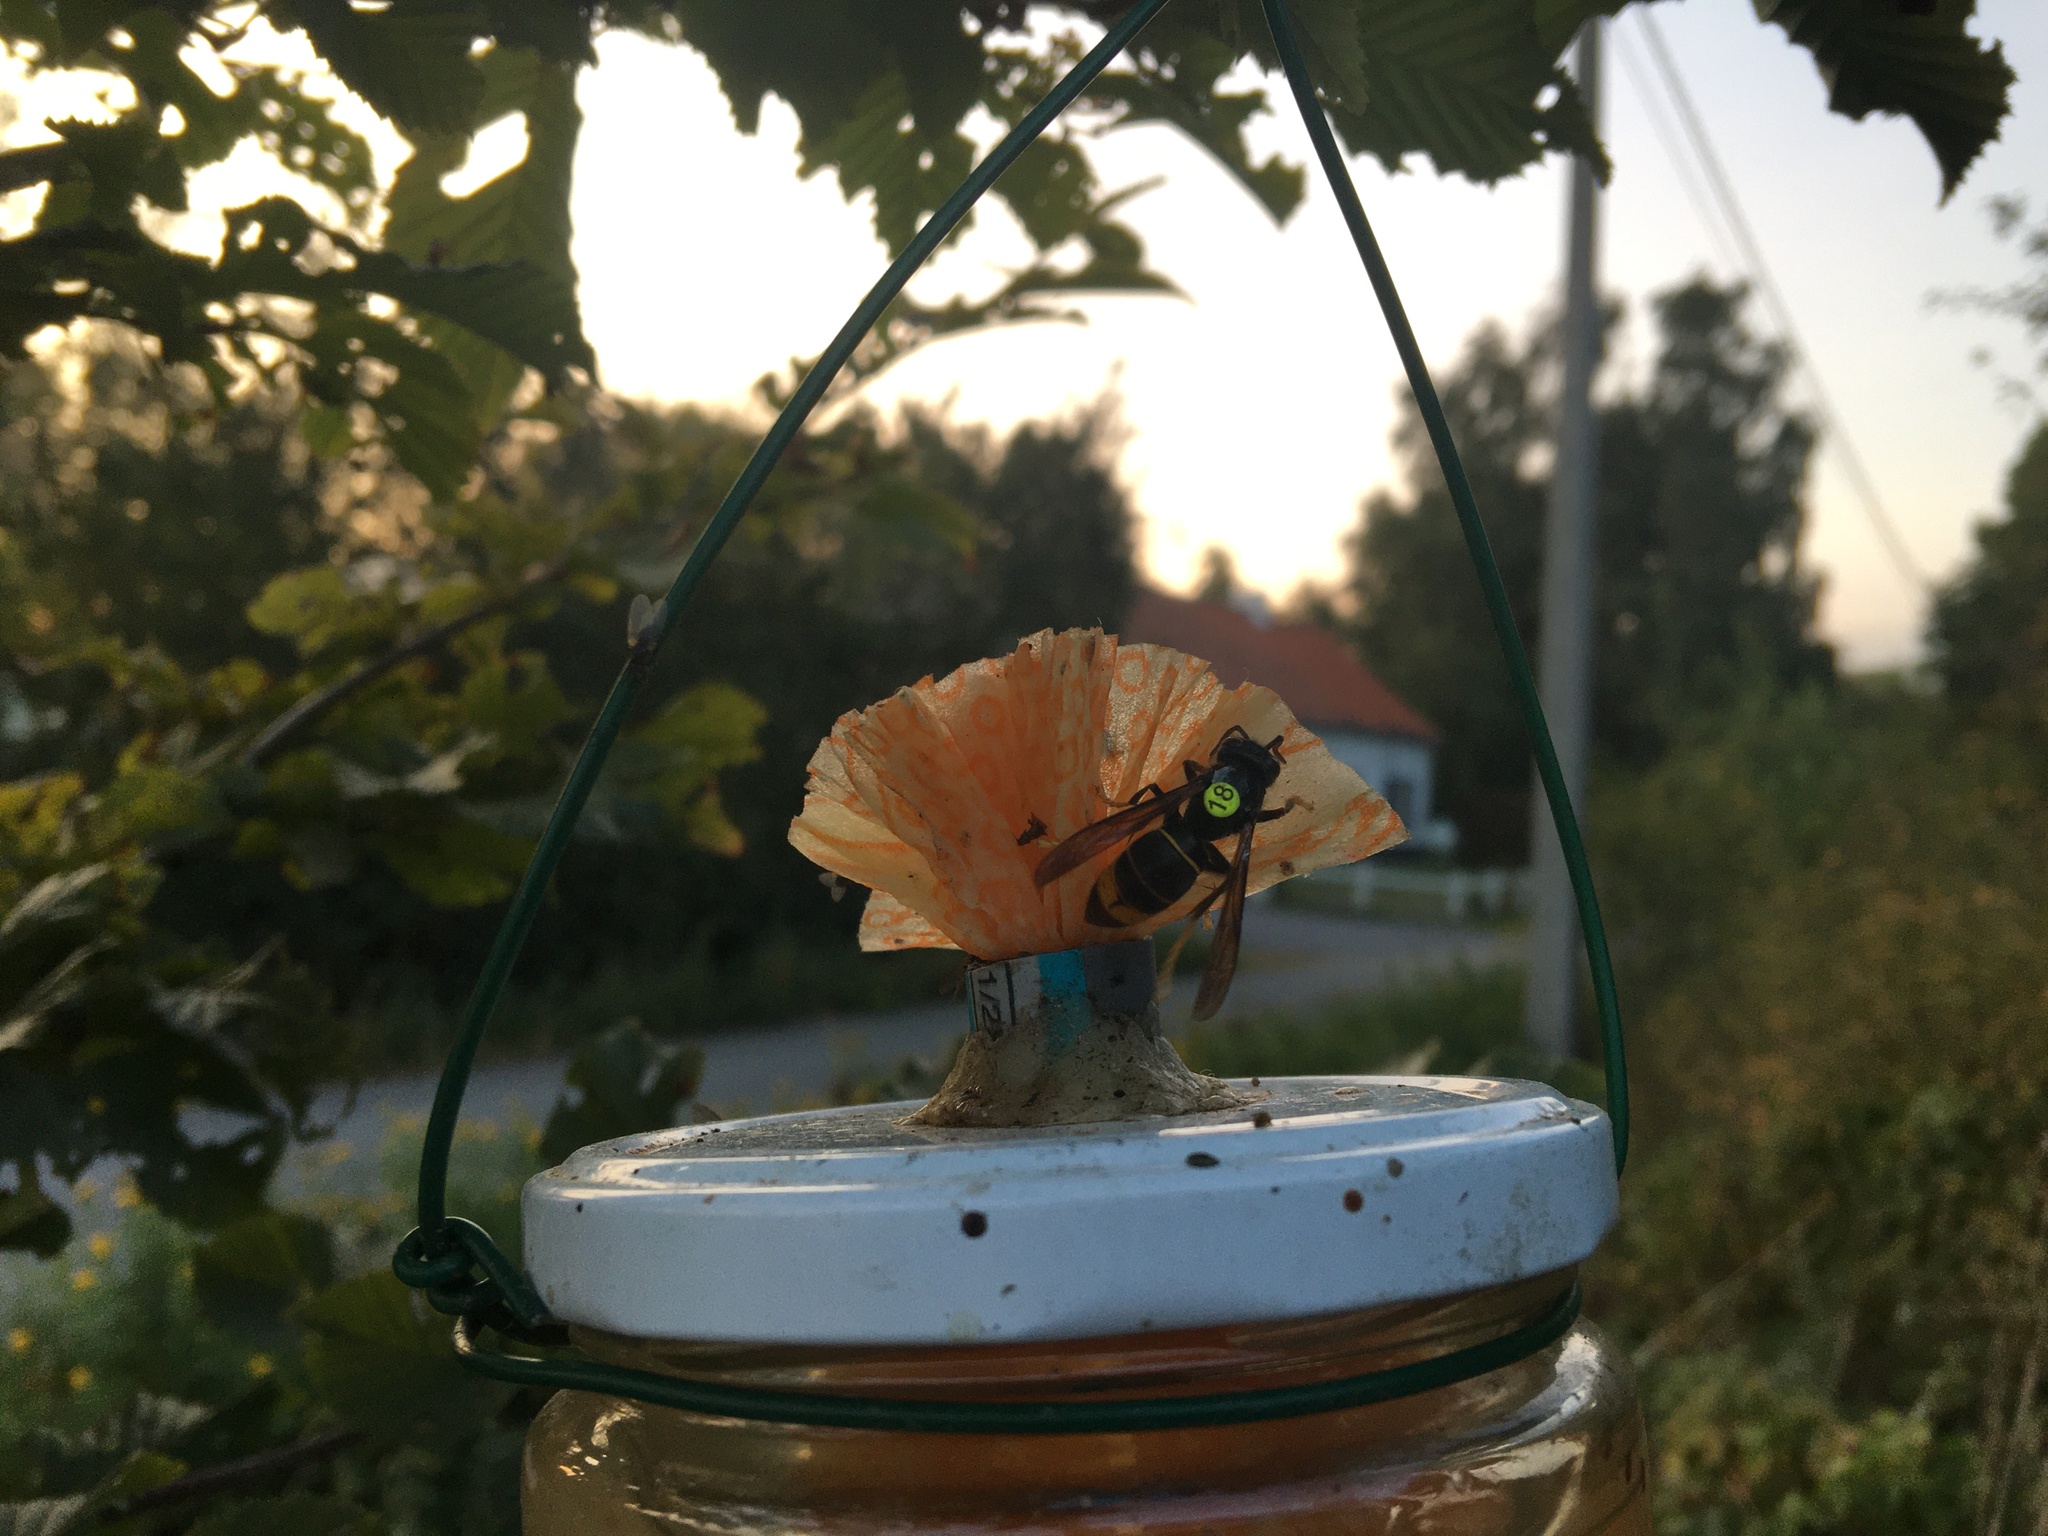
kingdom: Animalia
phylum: Arthropoda
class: Insecta
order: Hymenoptera
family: Vespidae
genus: Vespa
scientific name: Vespa velutina
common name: Asian hornet
